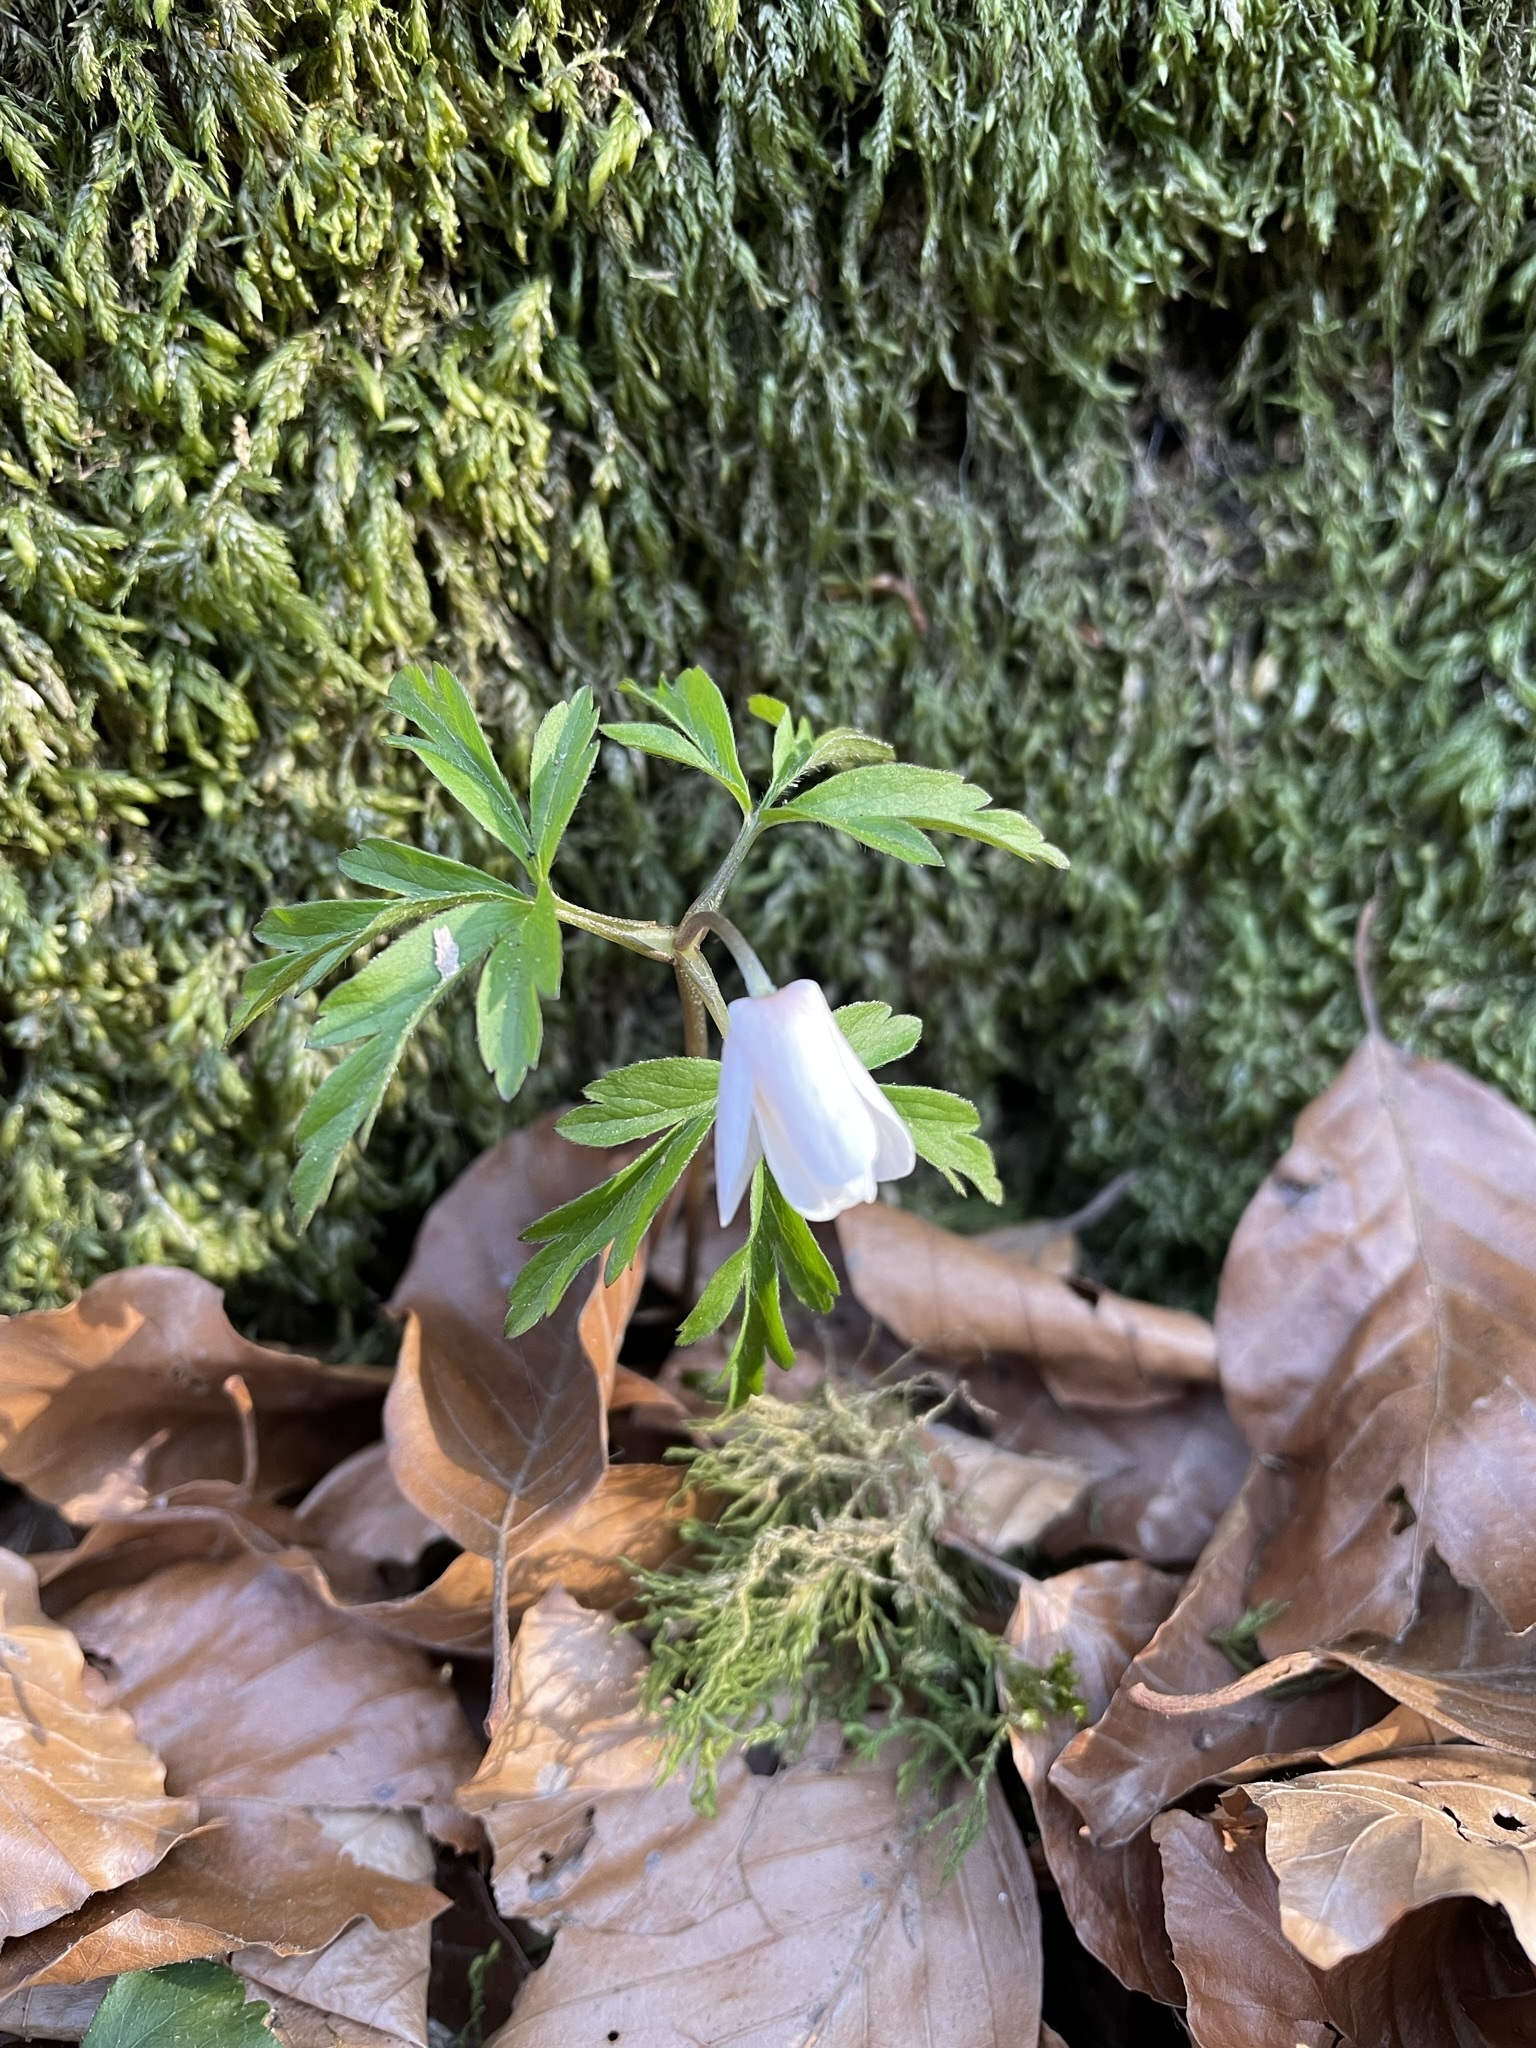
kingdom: Plantae
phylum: Tracheophyta
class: Magnoliopsida
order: Ranunculales
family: Ranunculaceae
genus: Anemone
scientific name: Anemone nemorosa
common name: Wood anemone
